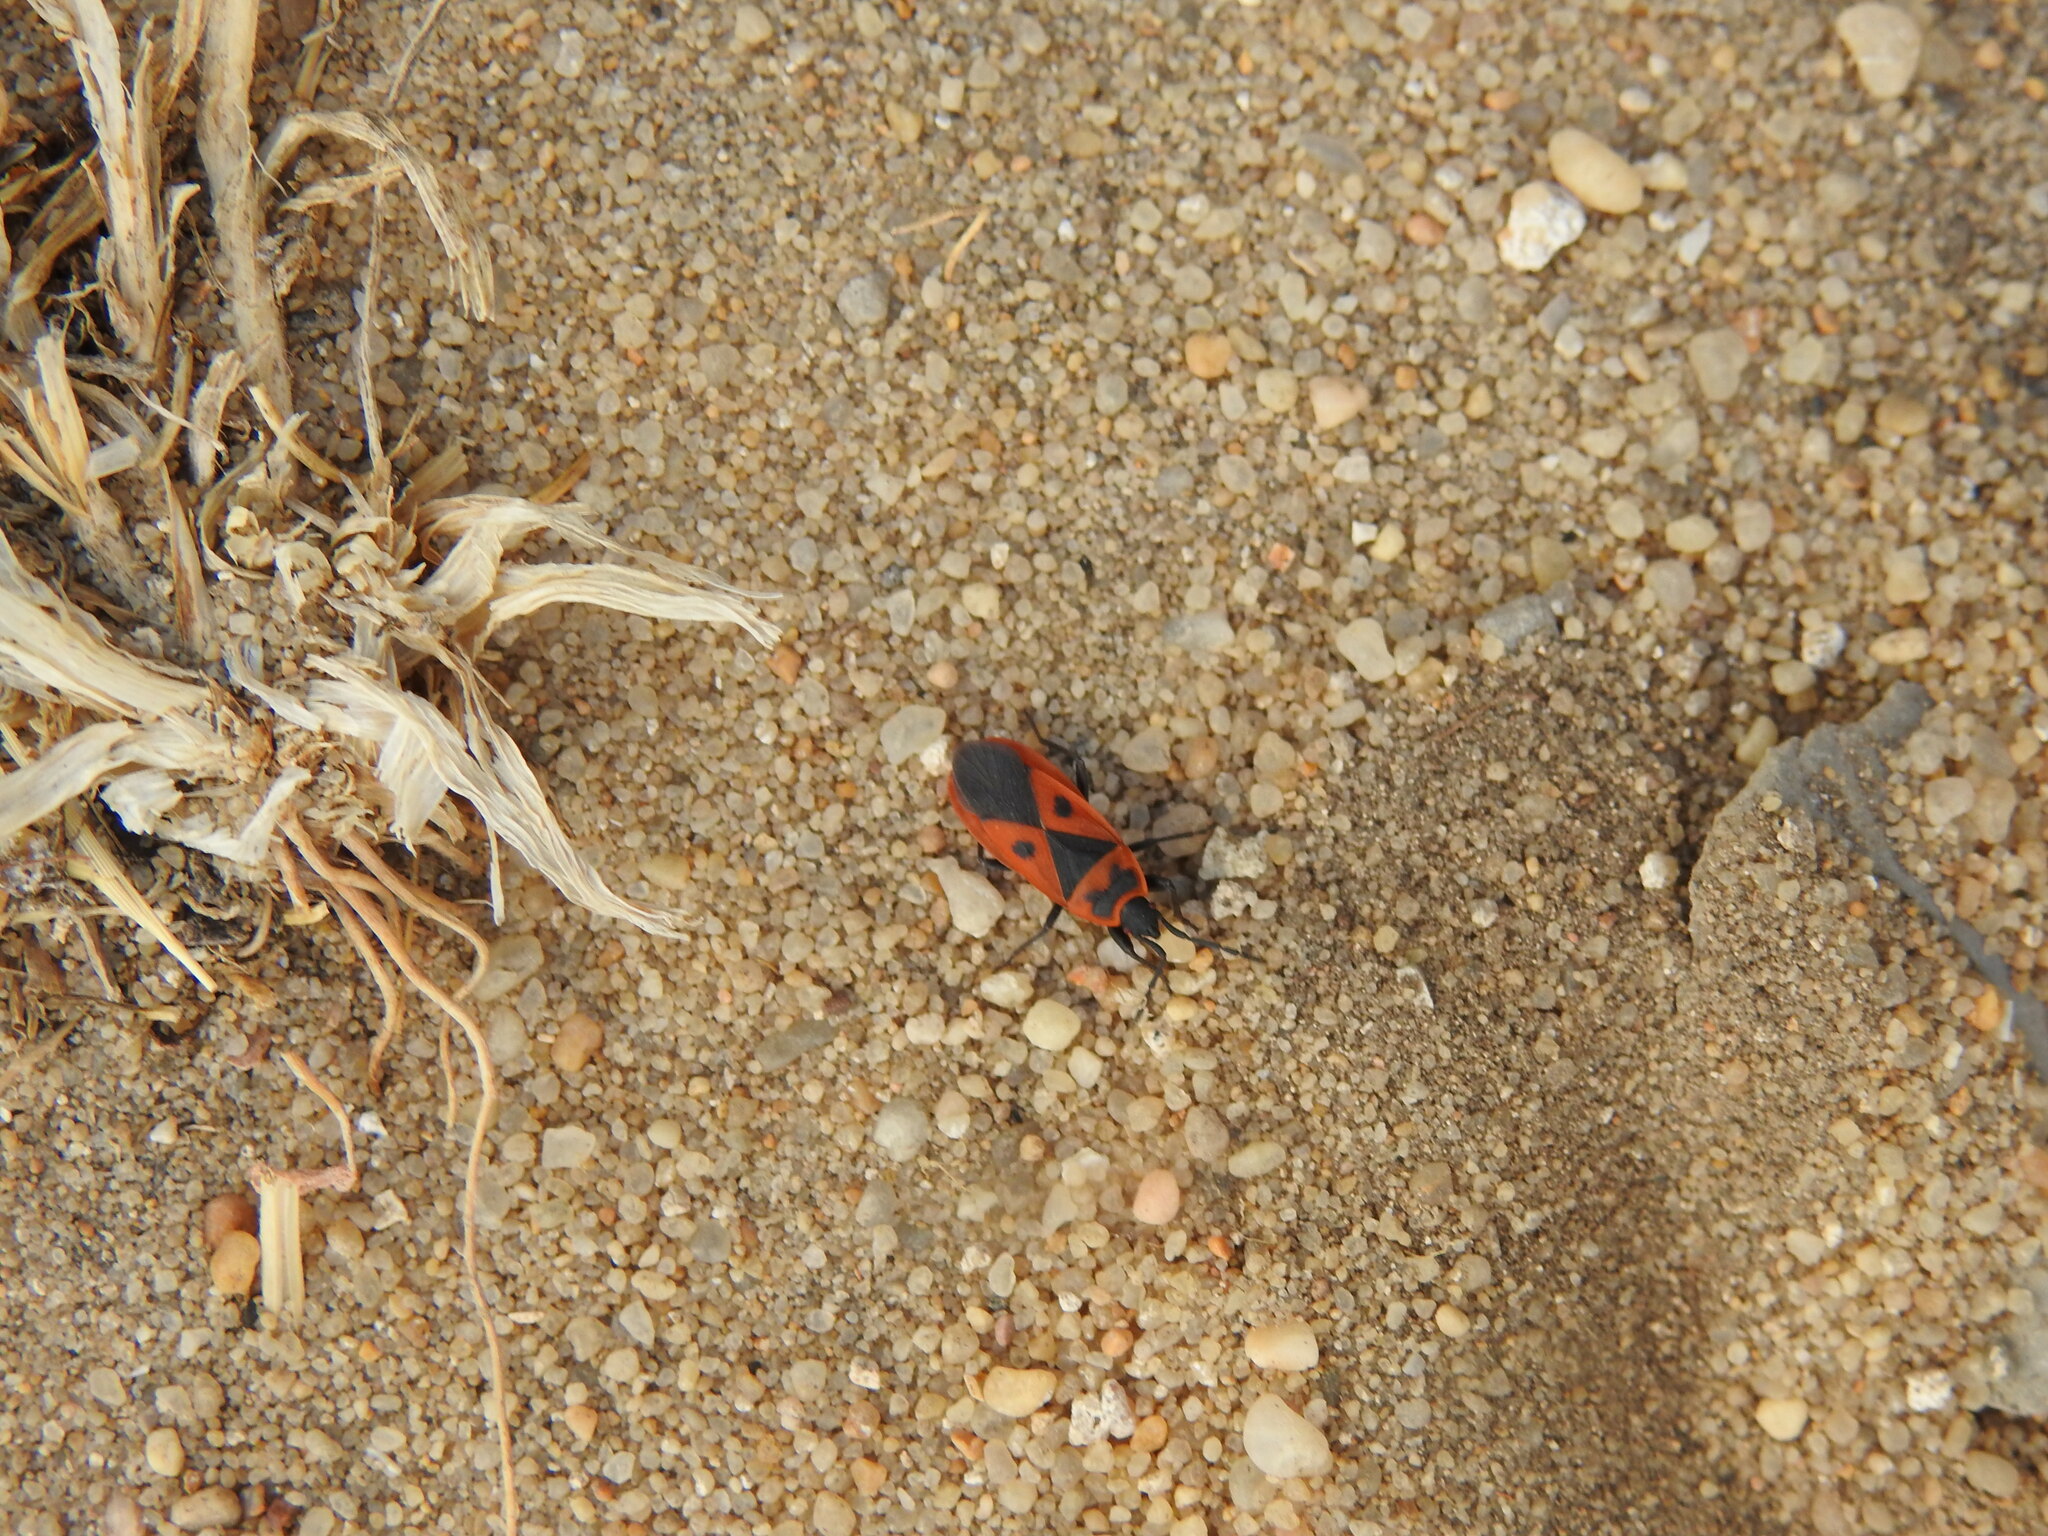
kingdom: Animalia
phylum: Arthropoda
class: Insecta
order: Hemiptera
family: Pyrrhocoridae
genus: Scantius
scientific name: Scantius aegyptius
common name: Red bug
